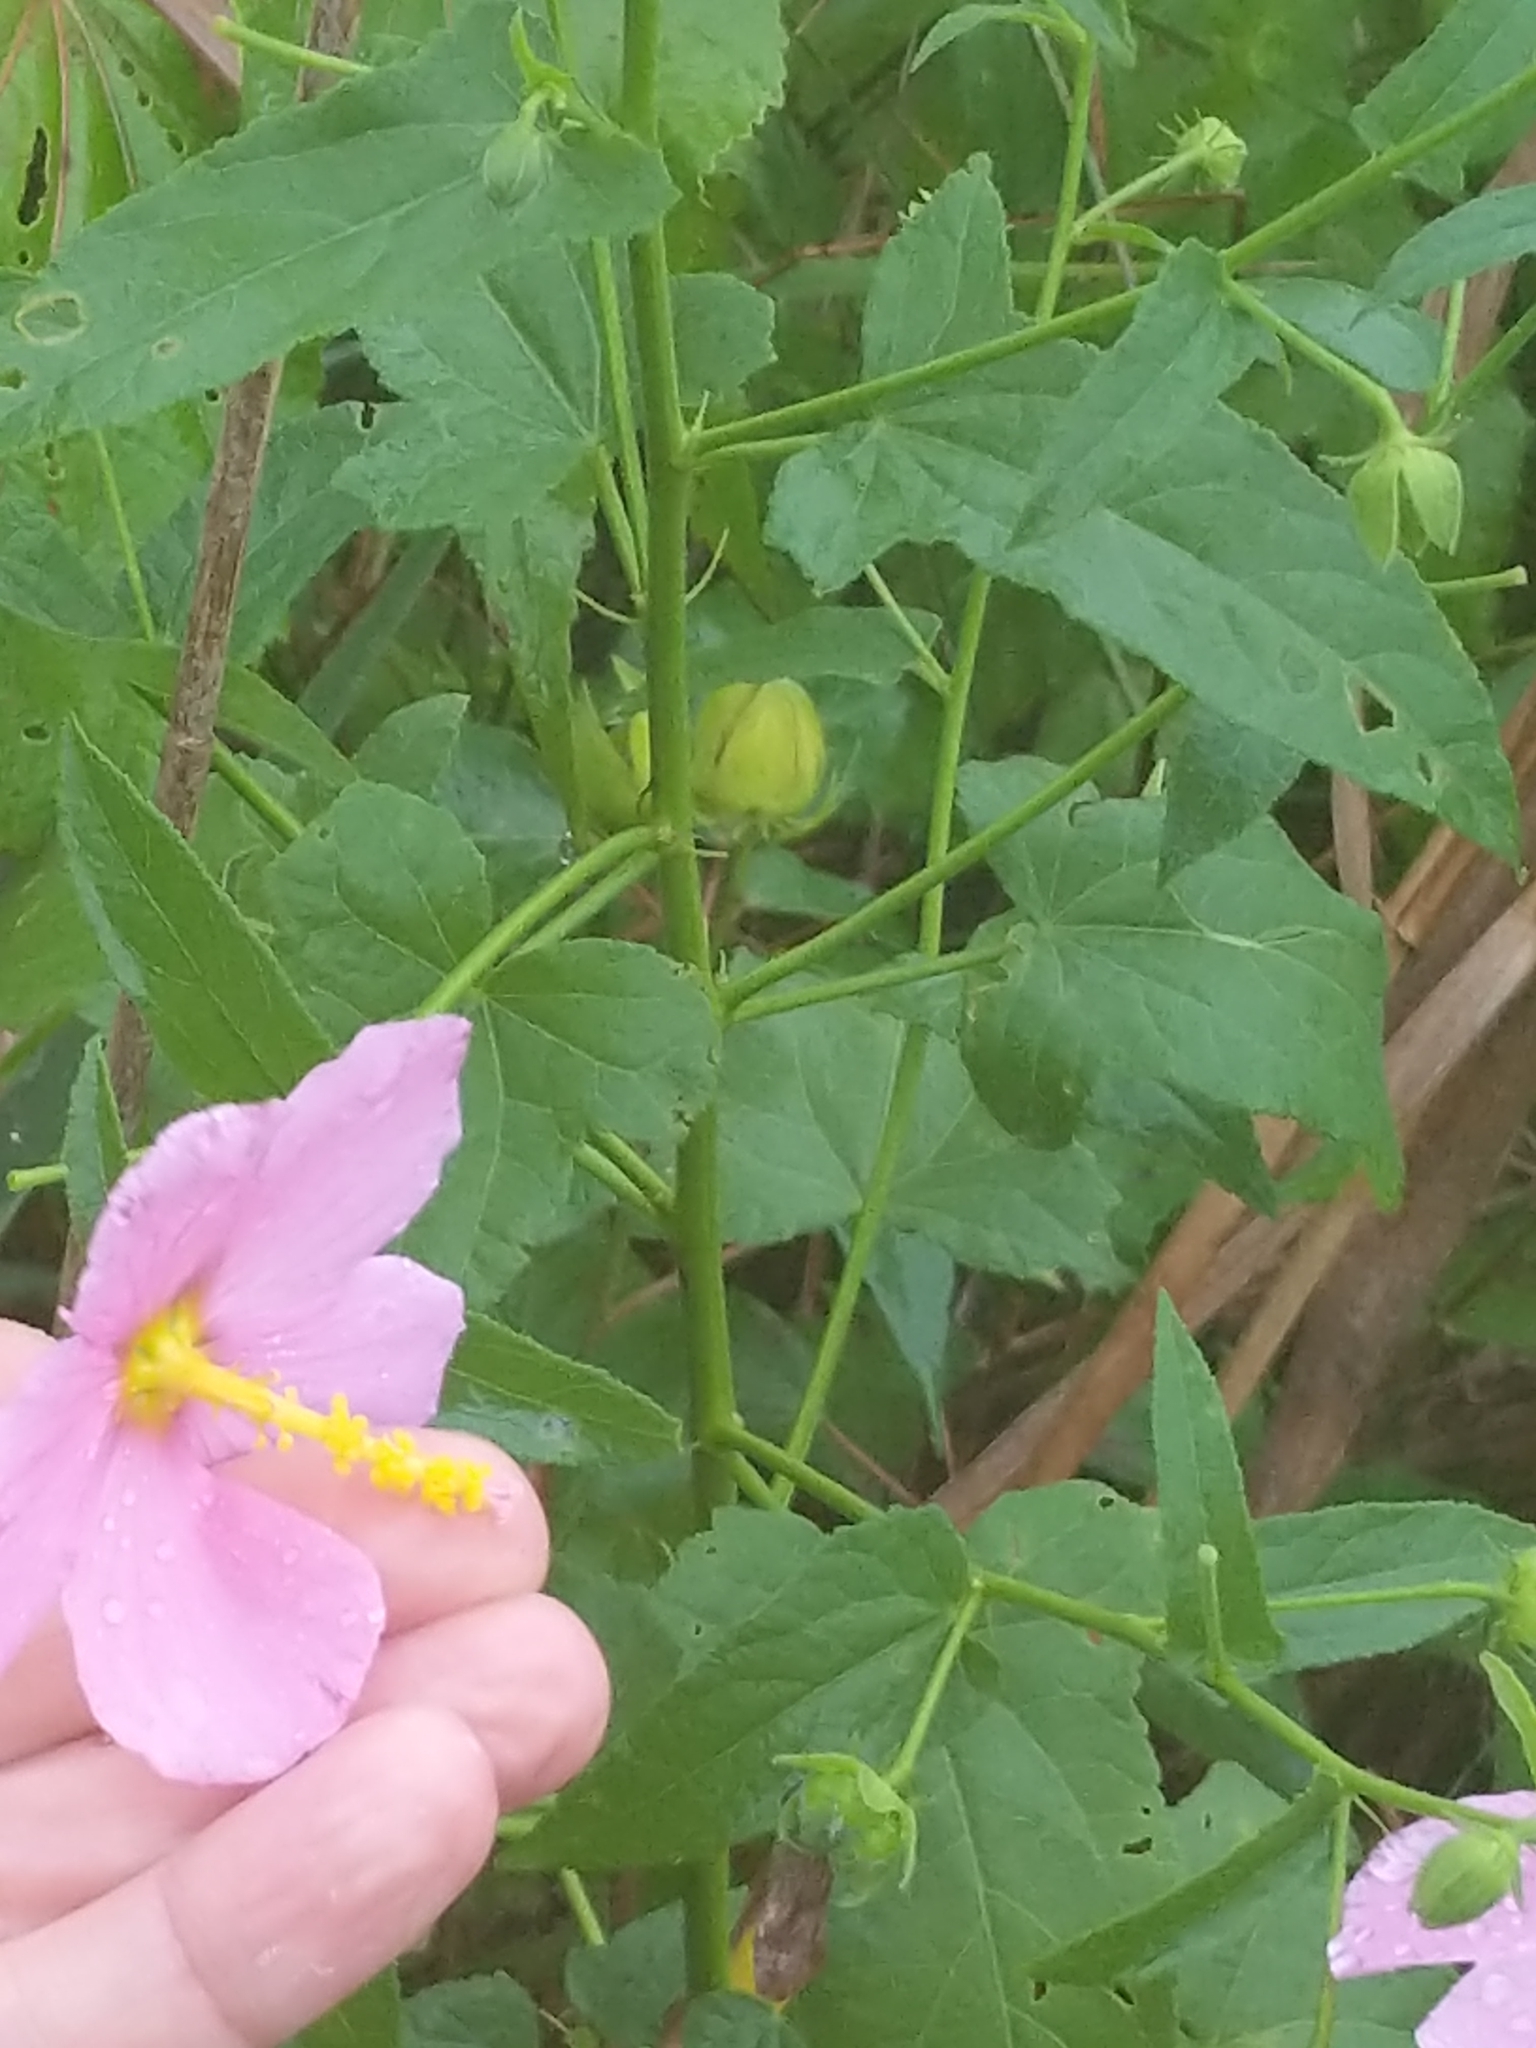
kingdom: Plantae
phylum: Tracheophyta
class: Magnoliopsida
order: Malvales
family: Malvaceae
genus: Kosteletzkya
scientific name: Kosteletzkya pentacarpos
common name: Virginia saltmarsh mallow
